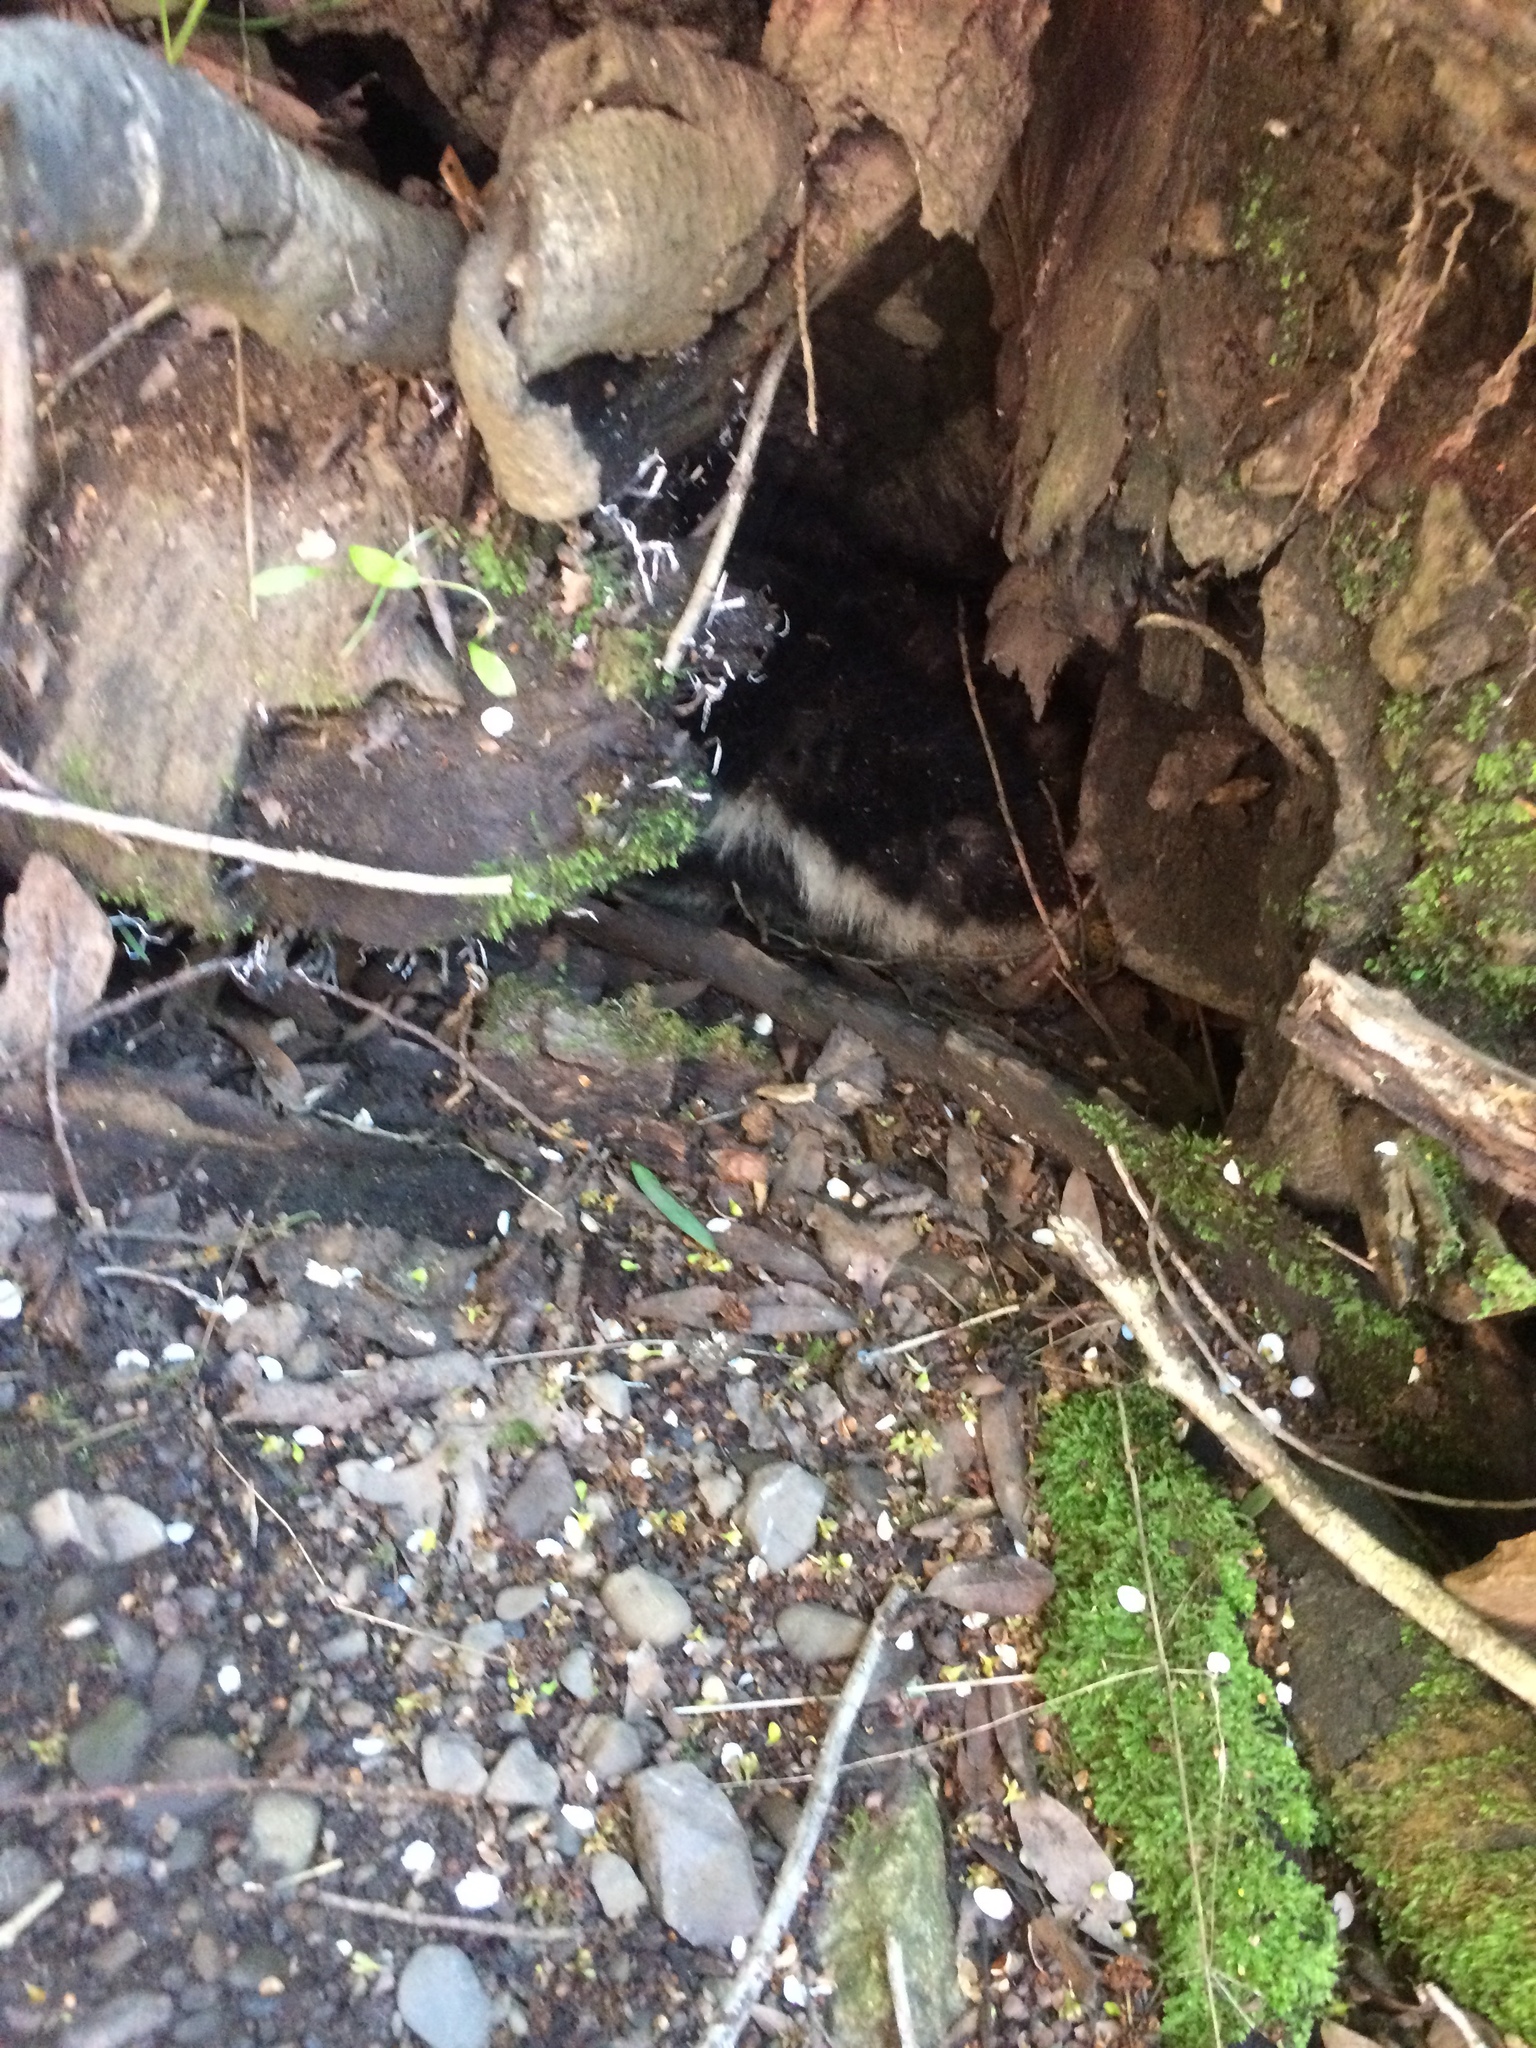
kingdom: Animalia
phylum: Chordata
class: Mammalia
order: Carnivora
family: Mephitidae
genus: Mephitis
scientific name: Mephitis mephitis
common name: Striped skunk
